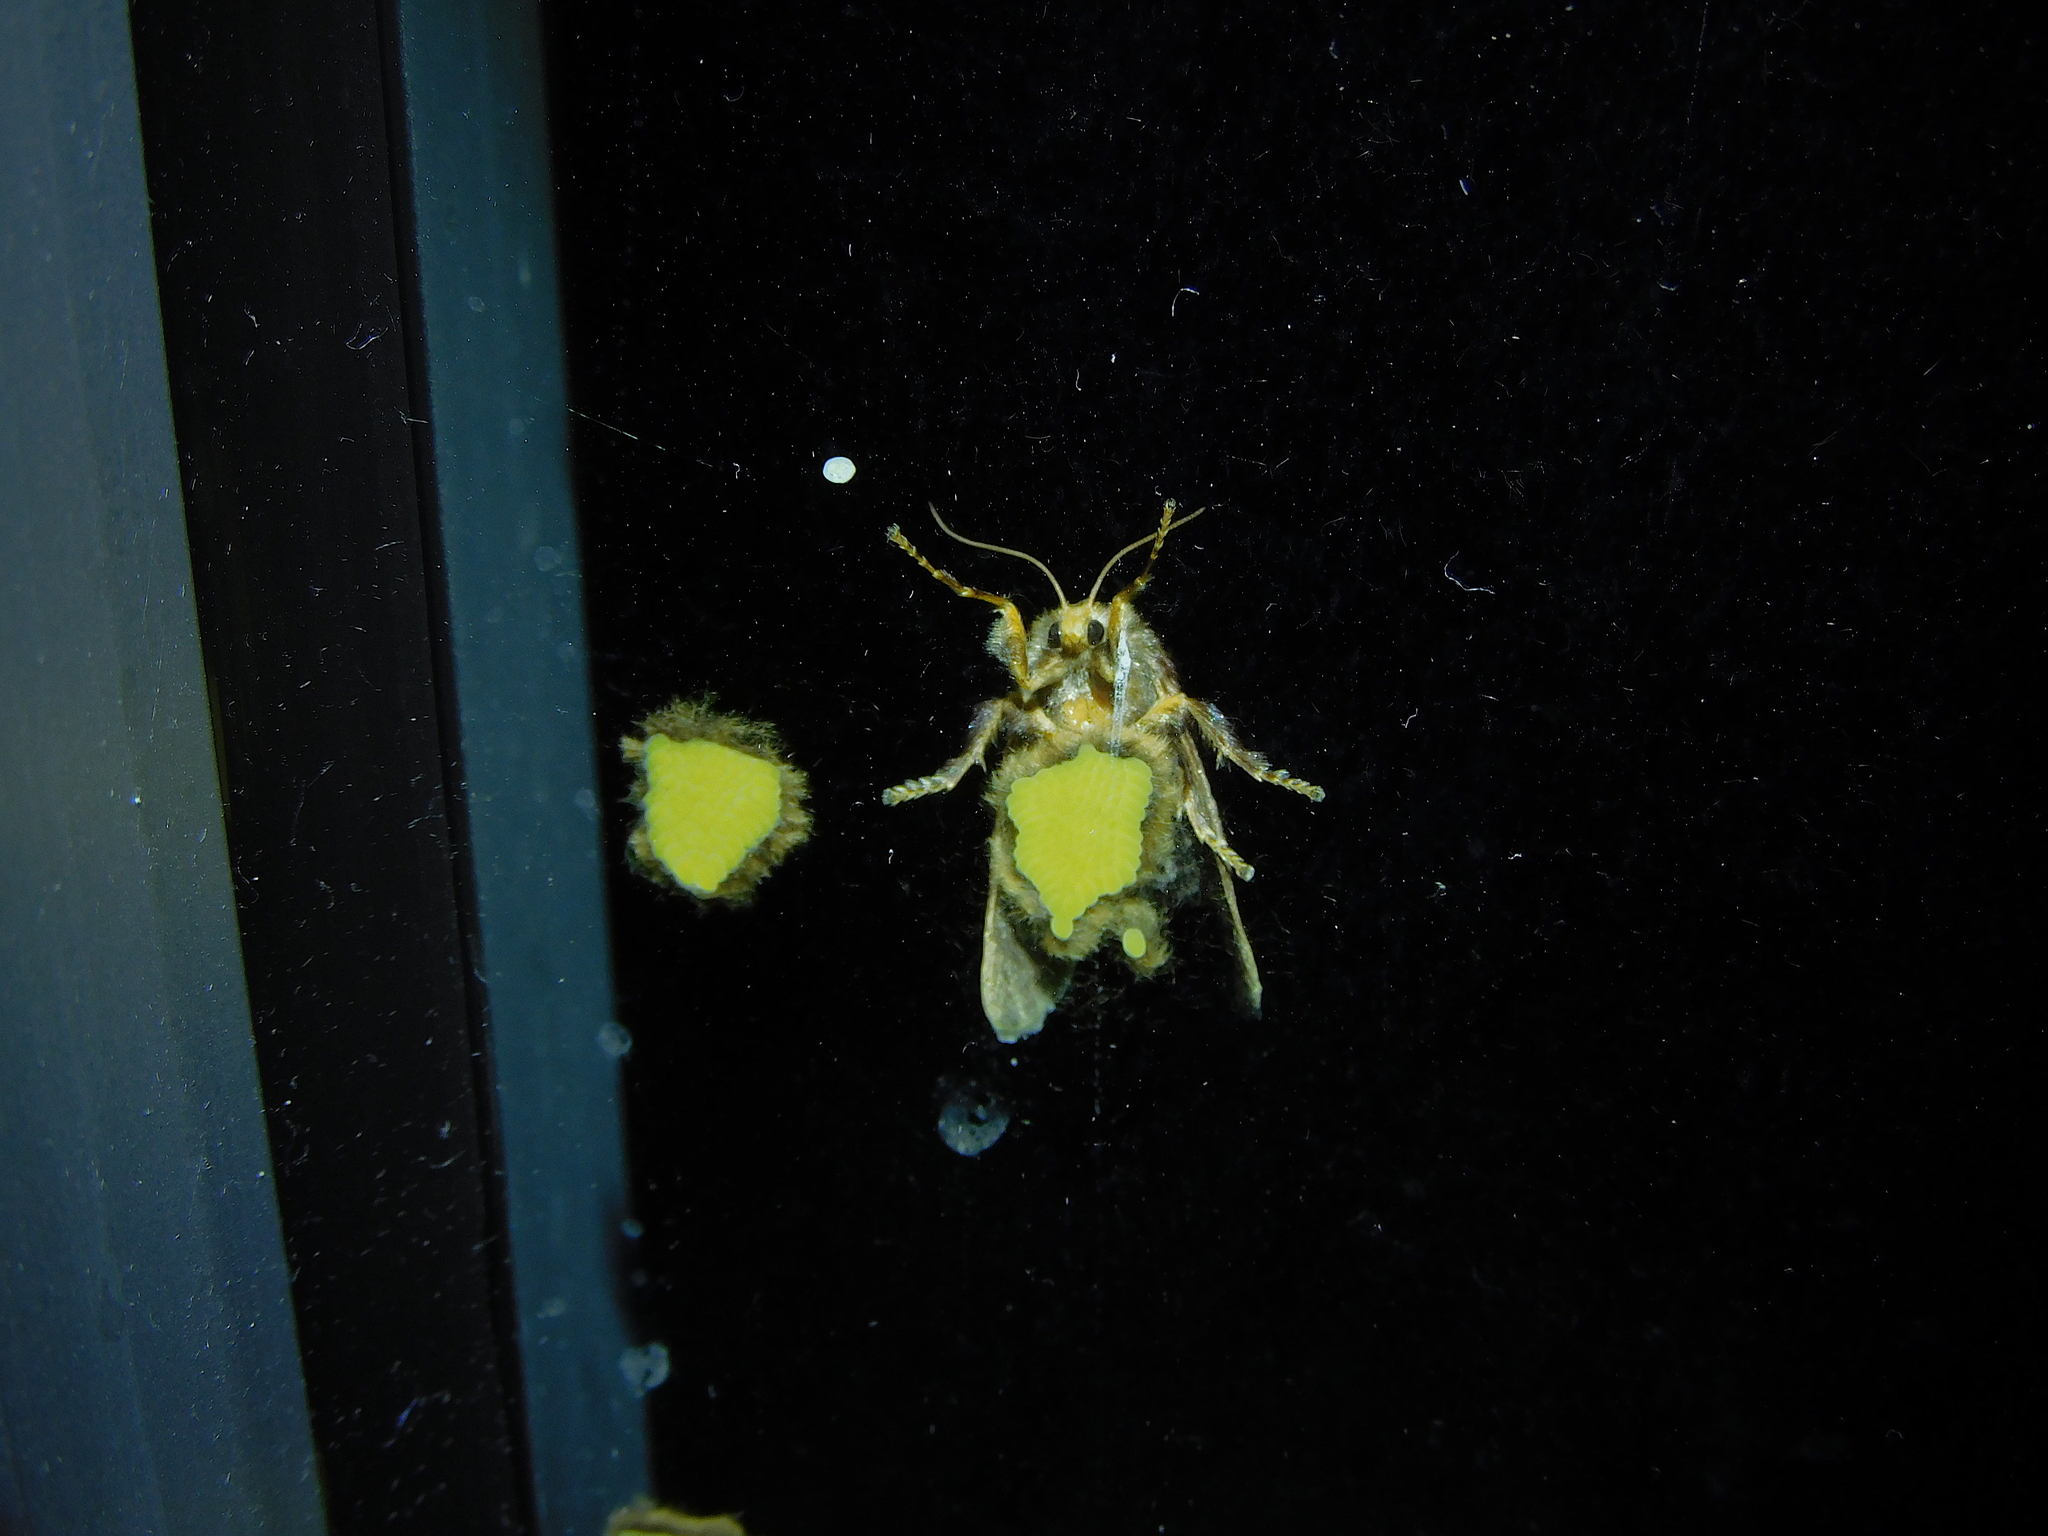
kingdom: Animalia
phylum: Arthropoda
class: Insecta
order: Lepidoptera
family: Limacodidae
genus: Doratifera
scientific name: Doratifera oxleyi
